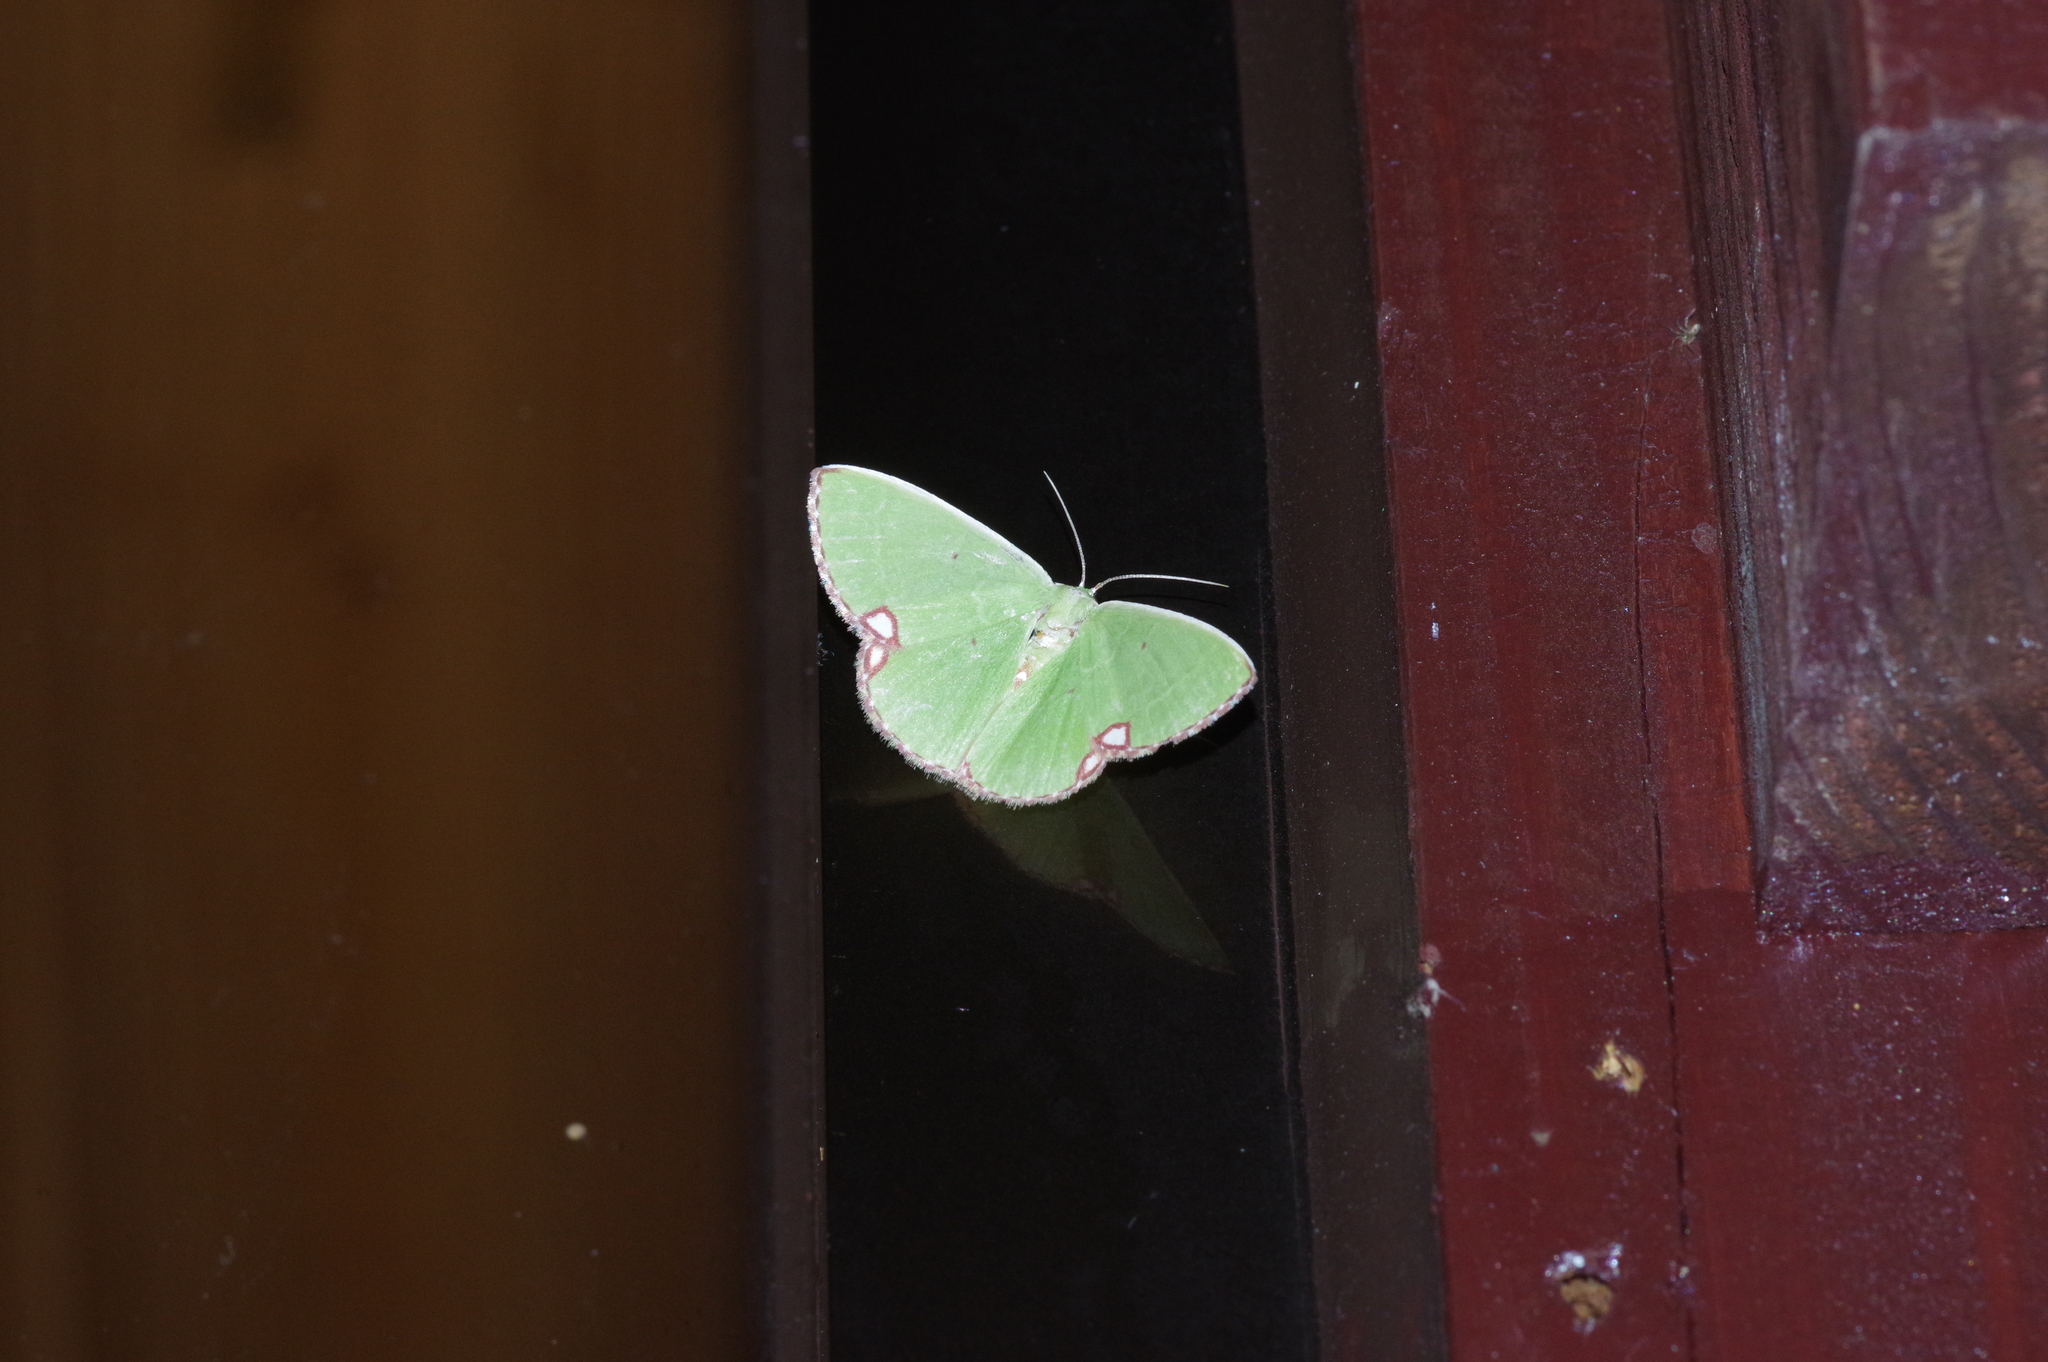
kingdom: Animalia
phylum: Arthropoda
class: Insecta
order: Lepidoptera
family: Geometridae
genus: Comibaena
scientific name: Comibaena procumbaria
